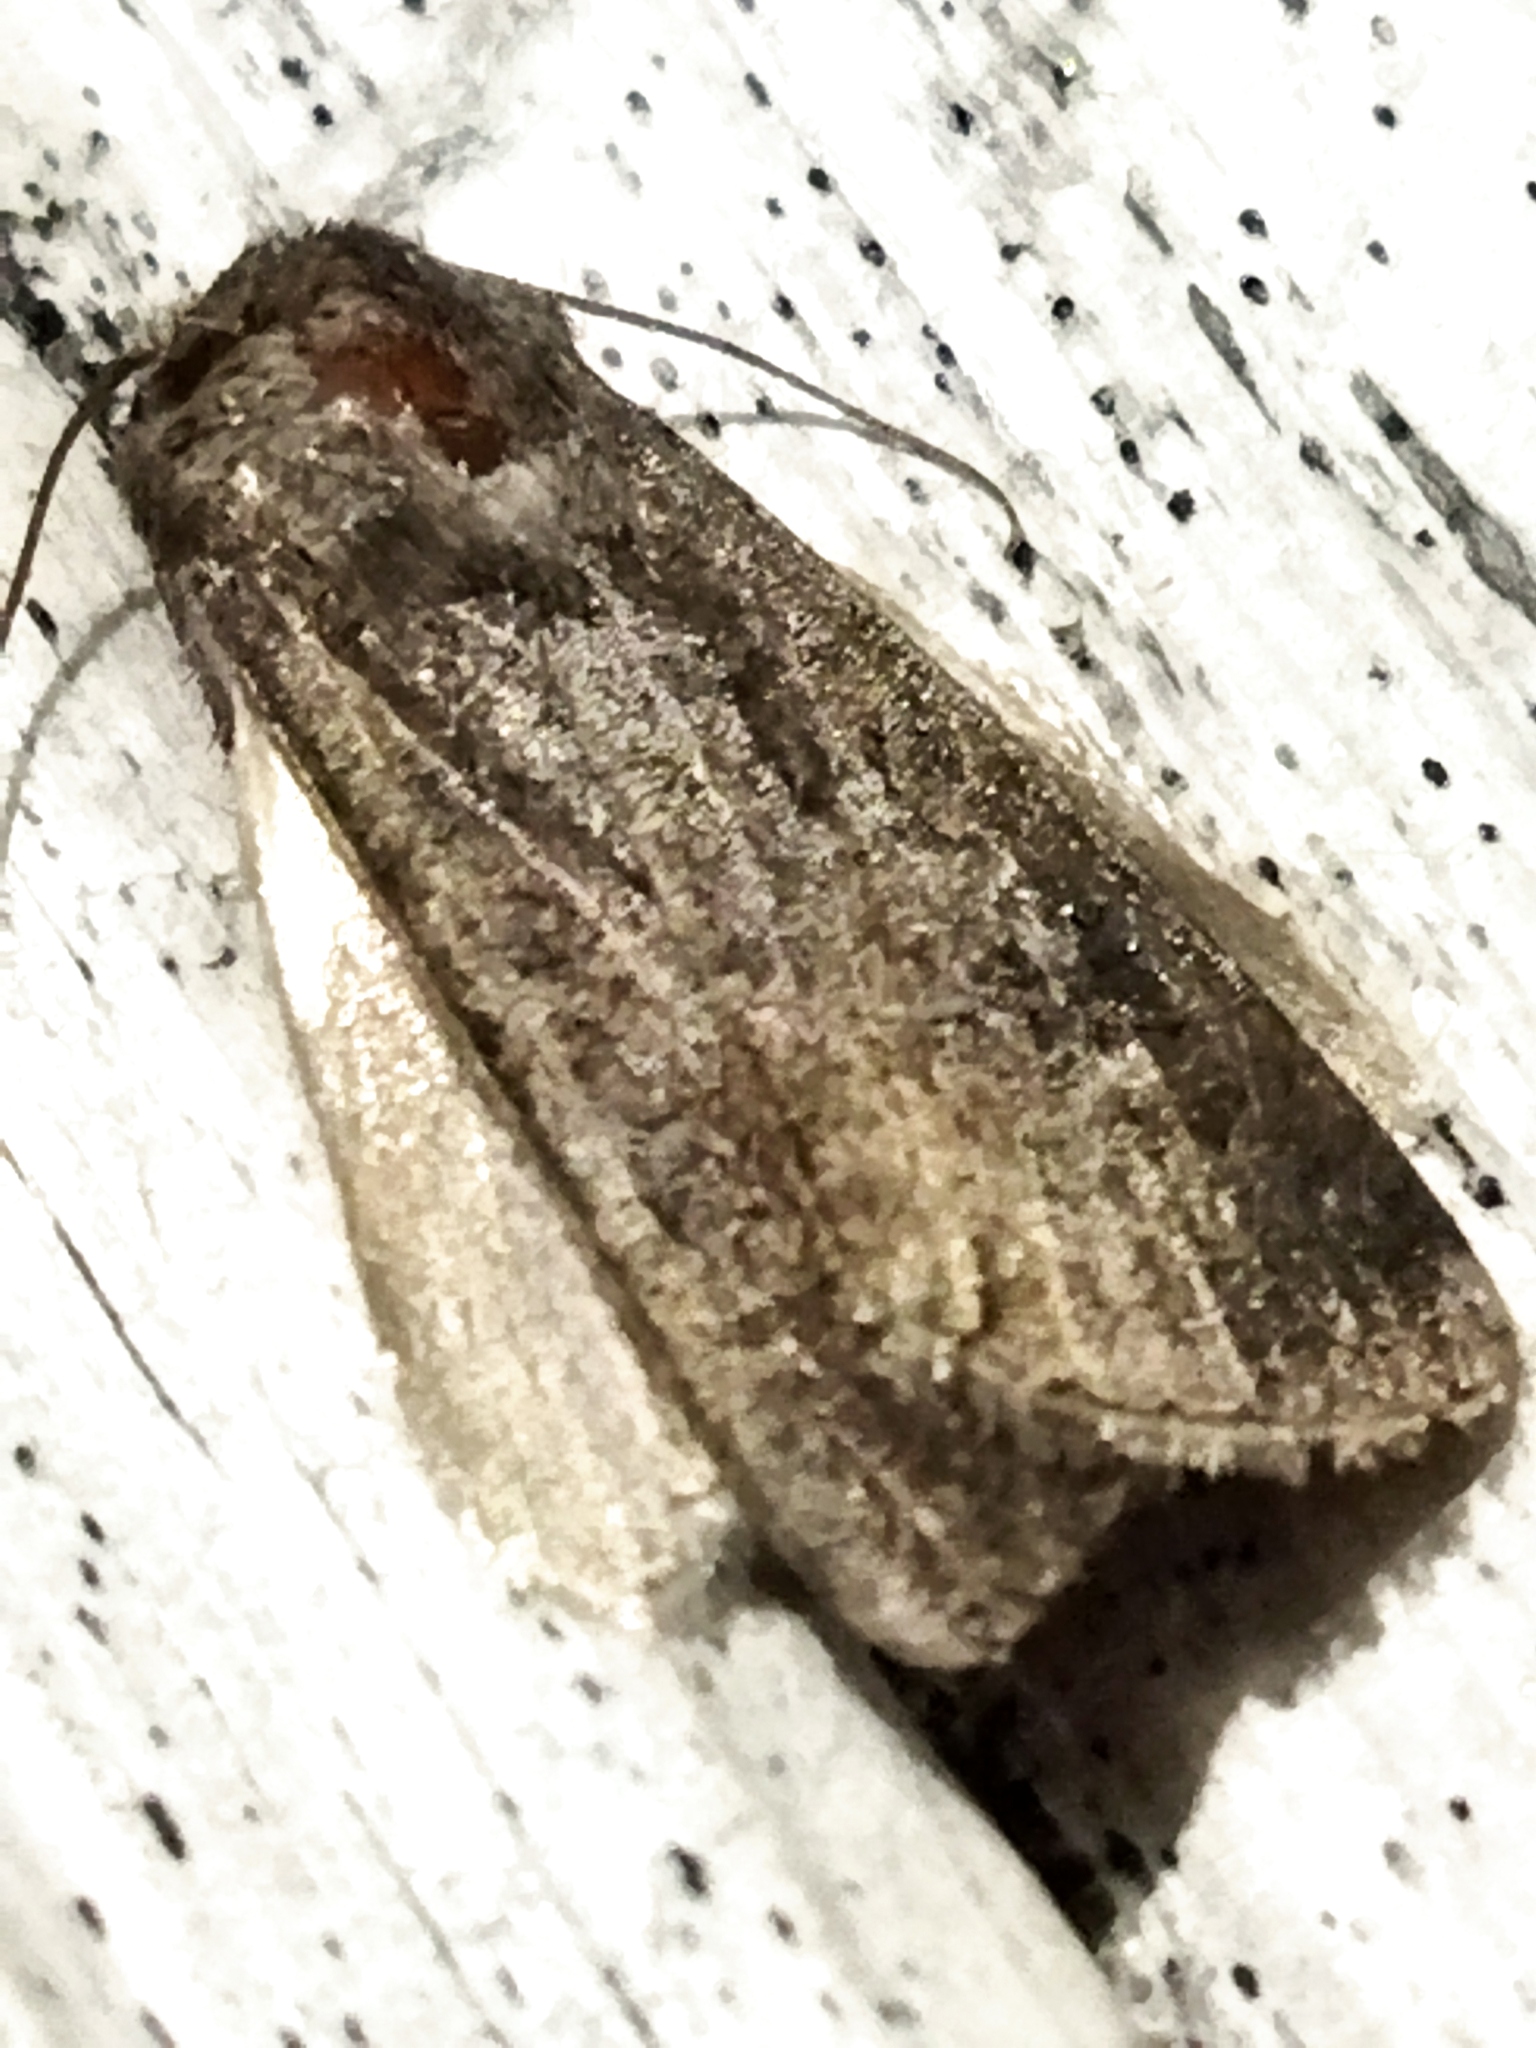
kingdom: Animalia
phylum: Arthropoda
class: Insecta
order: Lepidoptera
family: Noctuidae
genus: Agrotis
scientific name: Agrotis segetum
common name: Turnip moth
